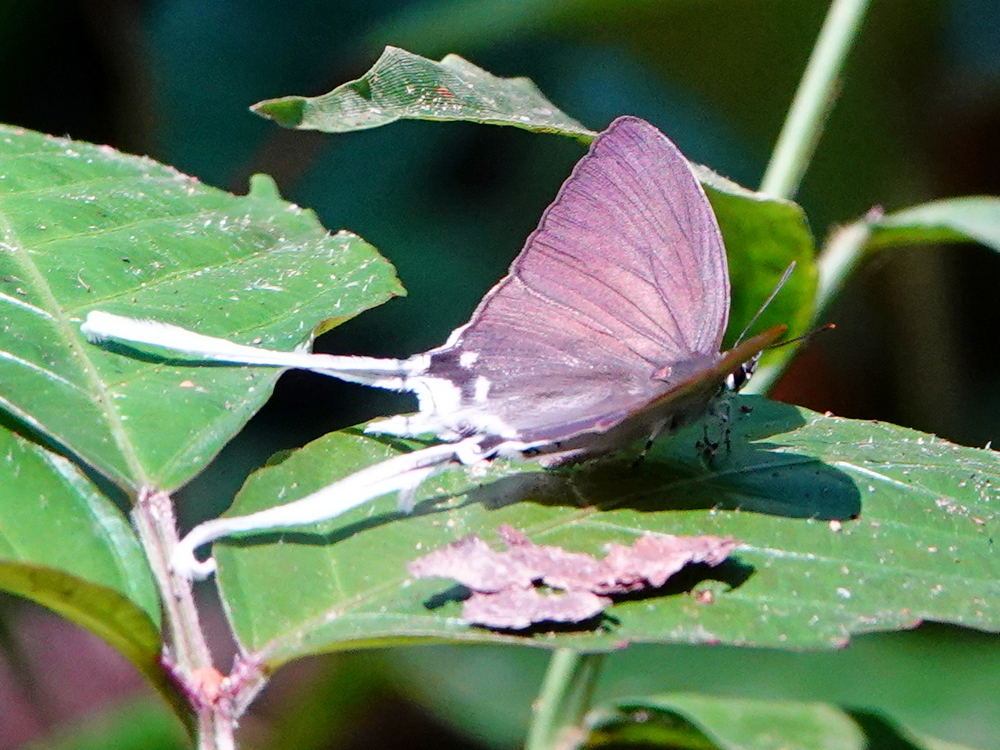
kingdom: Animalia
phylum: Arthropoda
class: Insecta
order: Lepidoptera
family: Lycaenidae
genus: Zeltus
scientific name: Zeltus amasa
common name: Fluffy tit
